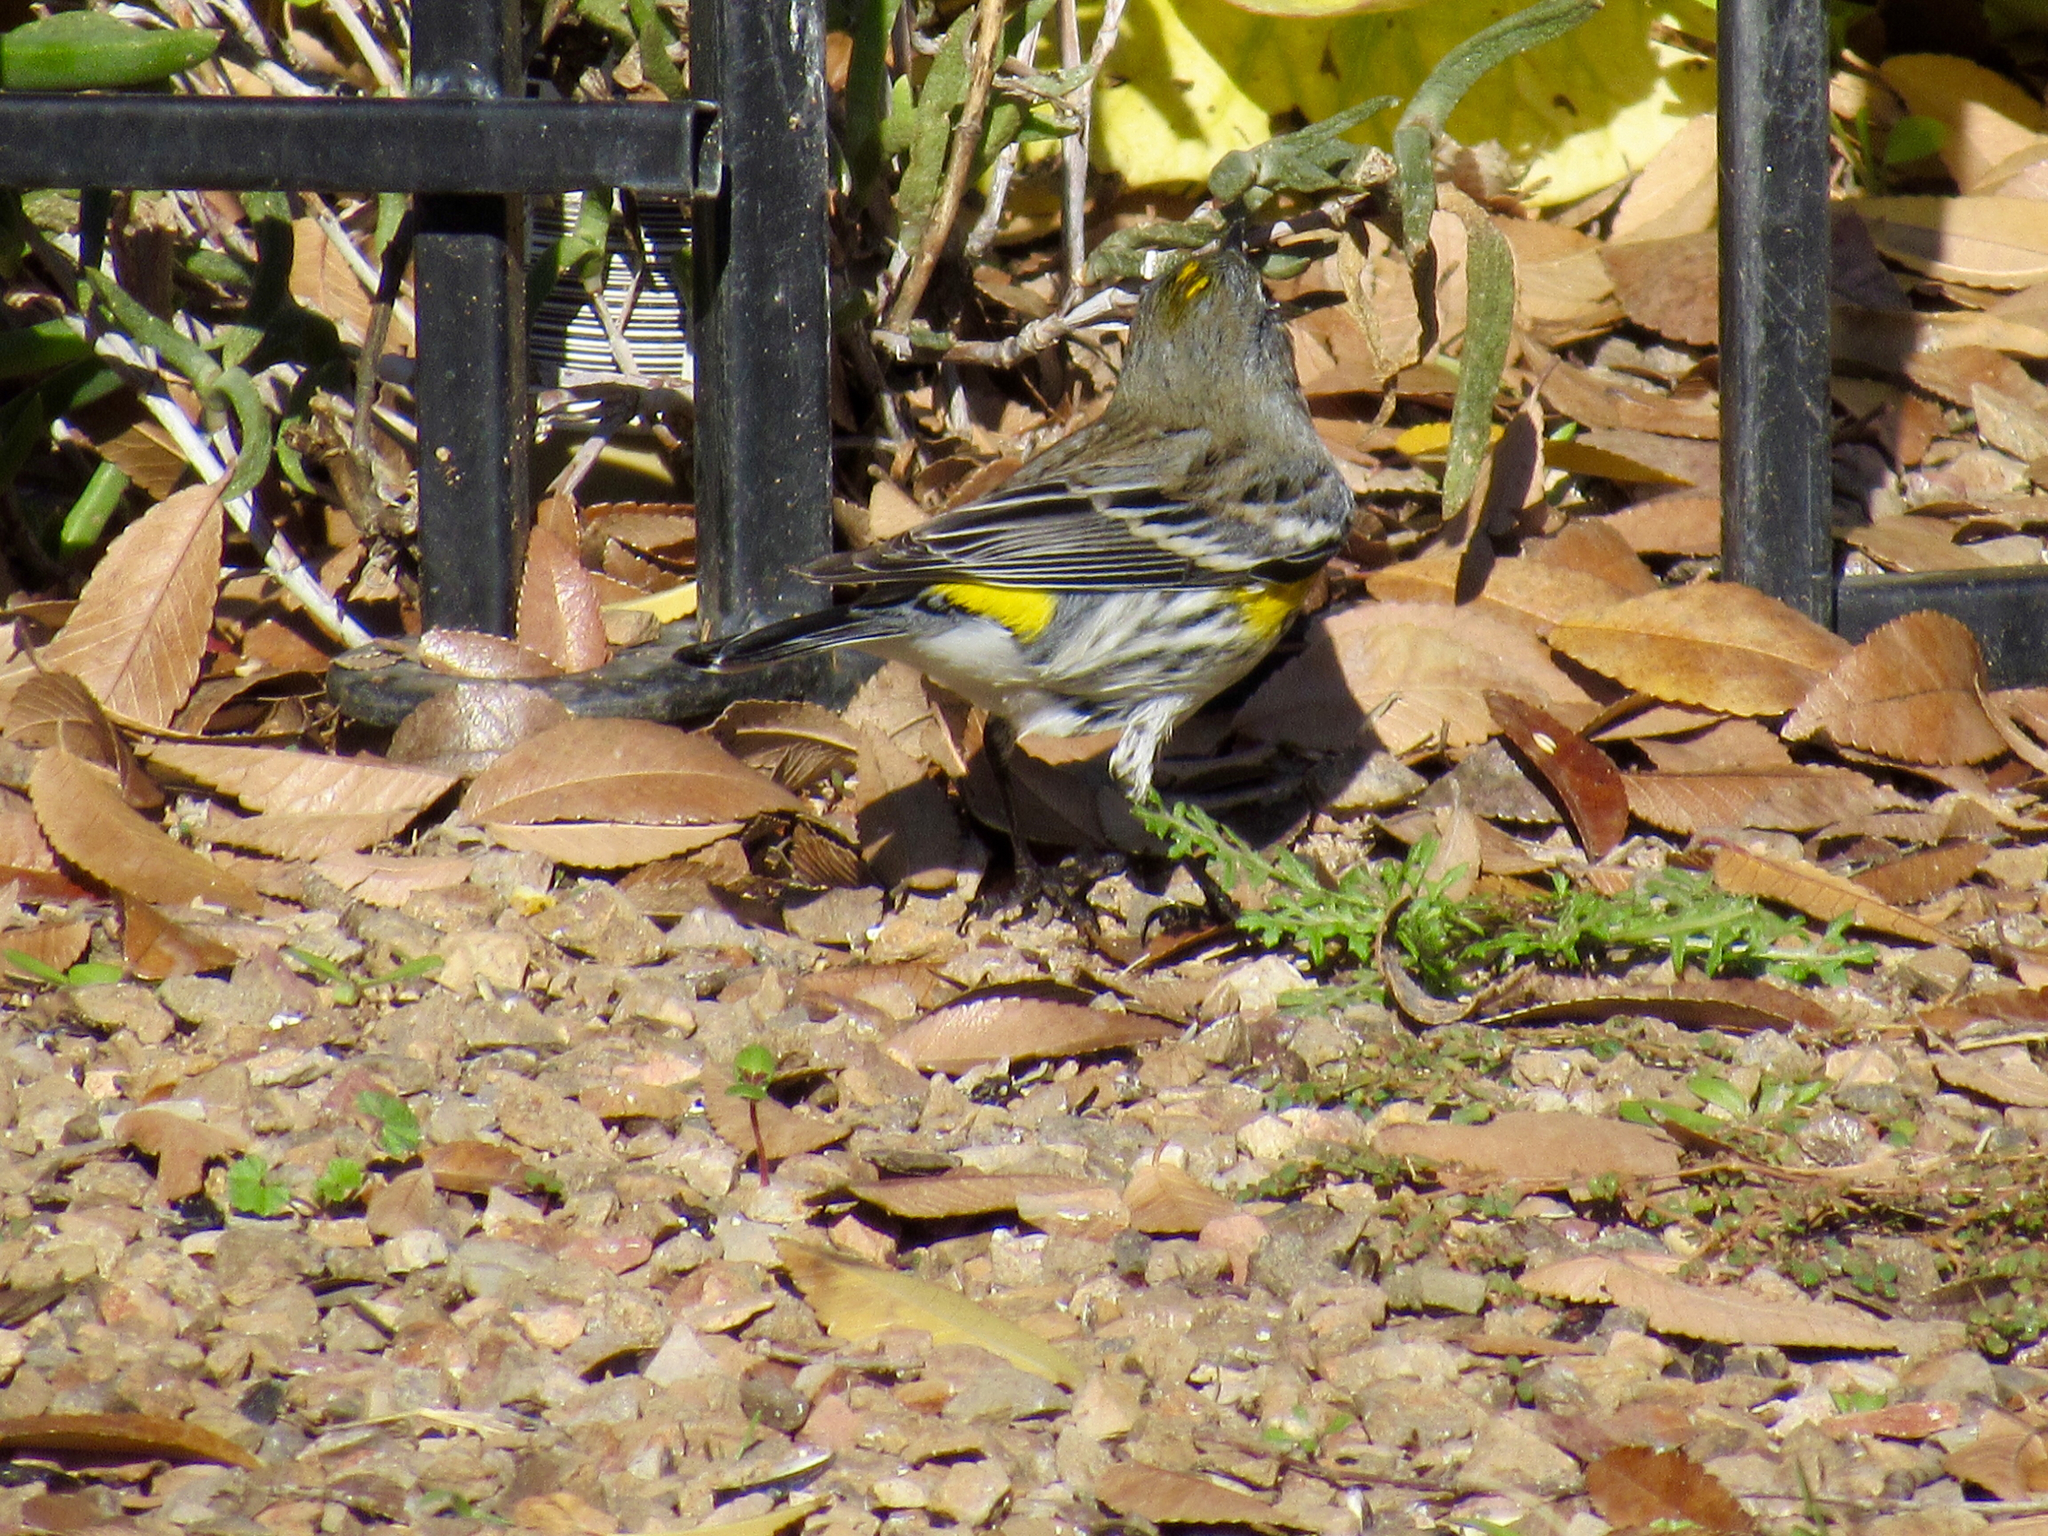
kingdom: Animalia
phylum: Chordata
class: Aves
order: Passeriformes
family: Parulidae
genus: Setophaga
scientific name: Setophaga coronata
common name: Myrtle warbler
